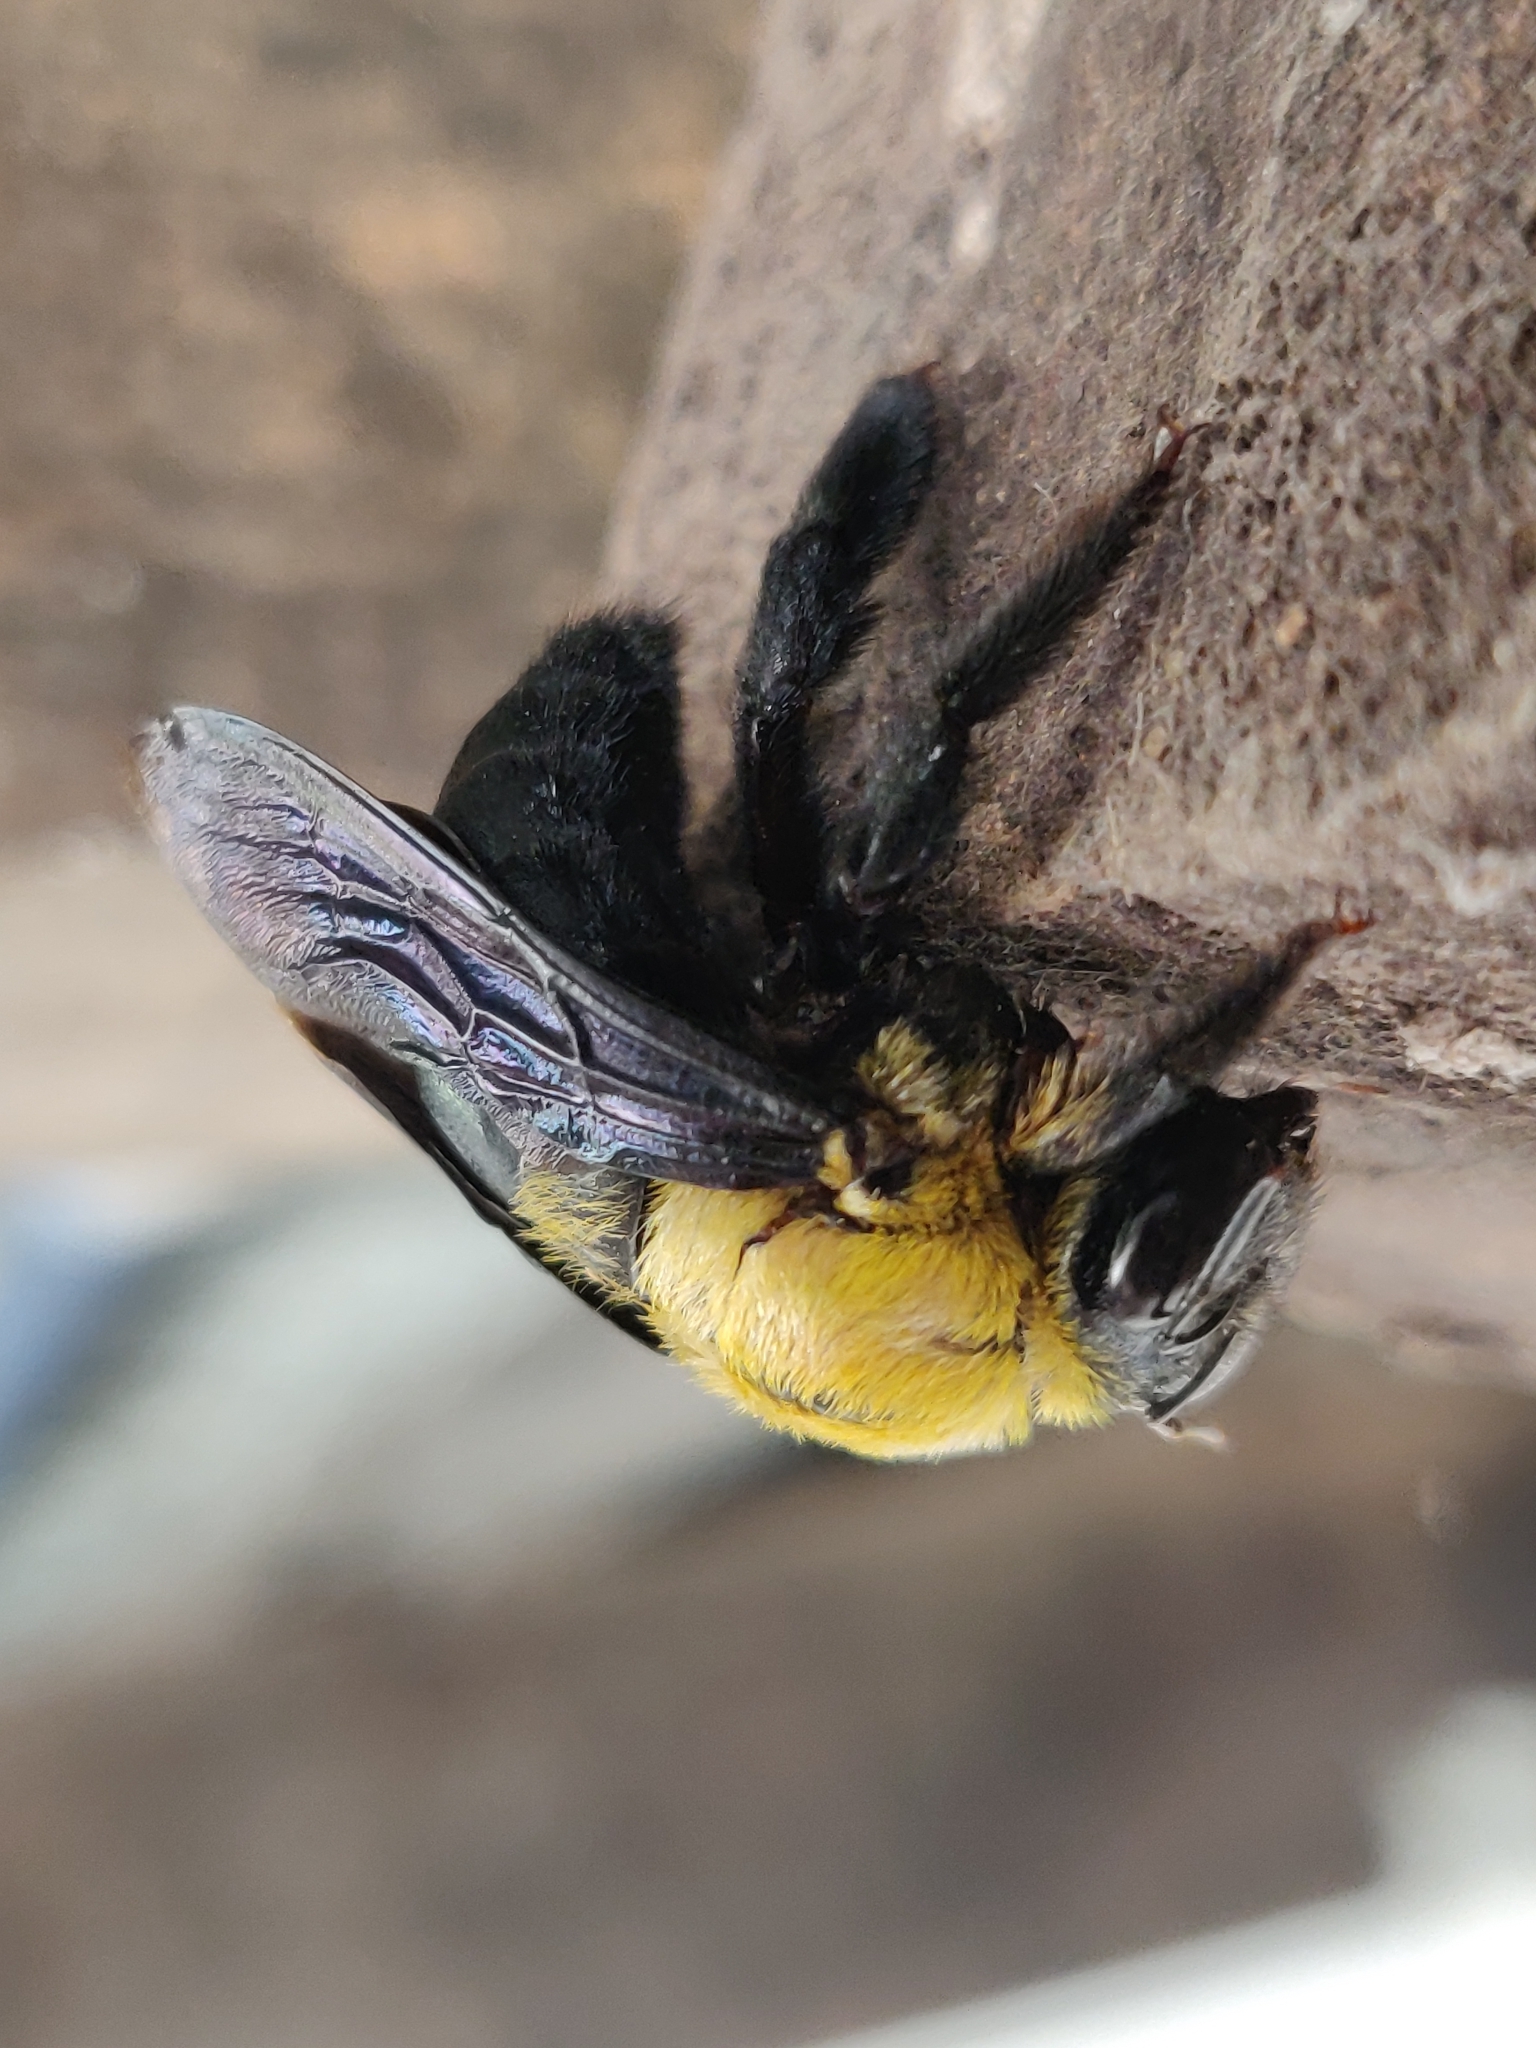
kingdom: Animalia
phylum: Arthropoda
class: Insecta
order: Hymenoptera
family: Apidae
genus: Xylocopa
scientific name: Xylocopa ruficornis
